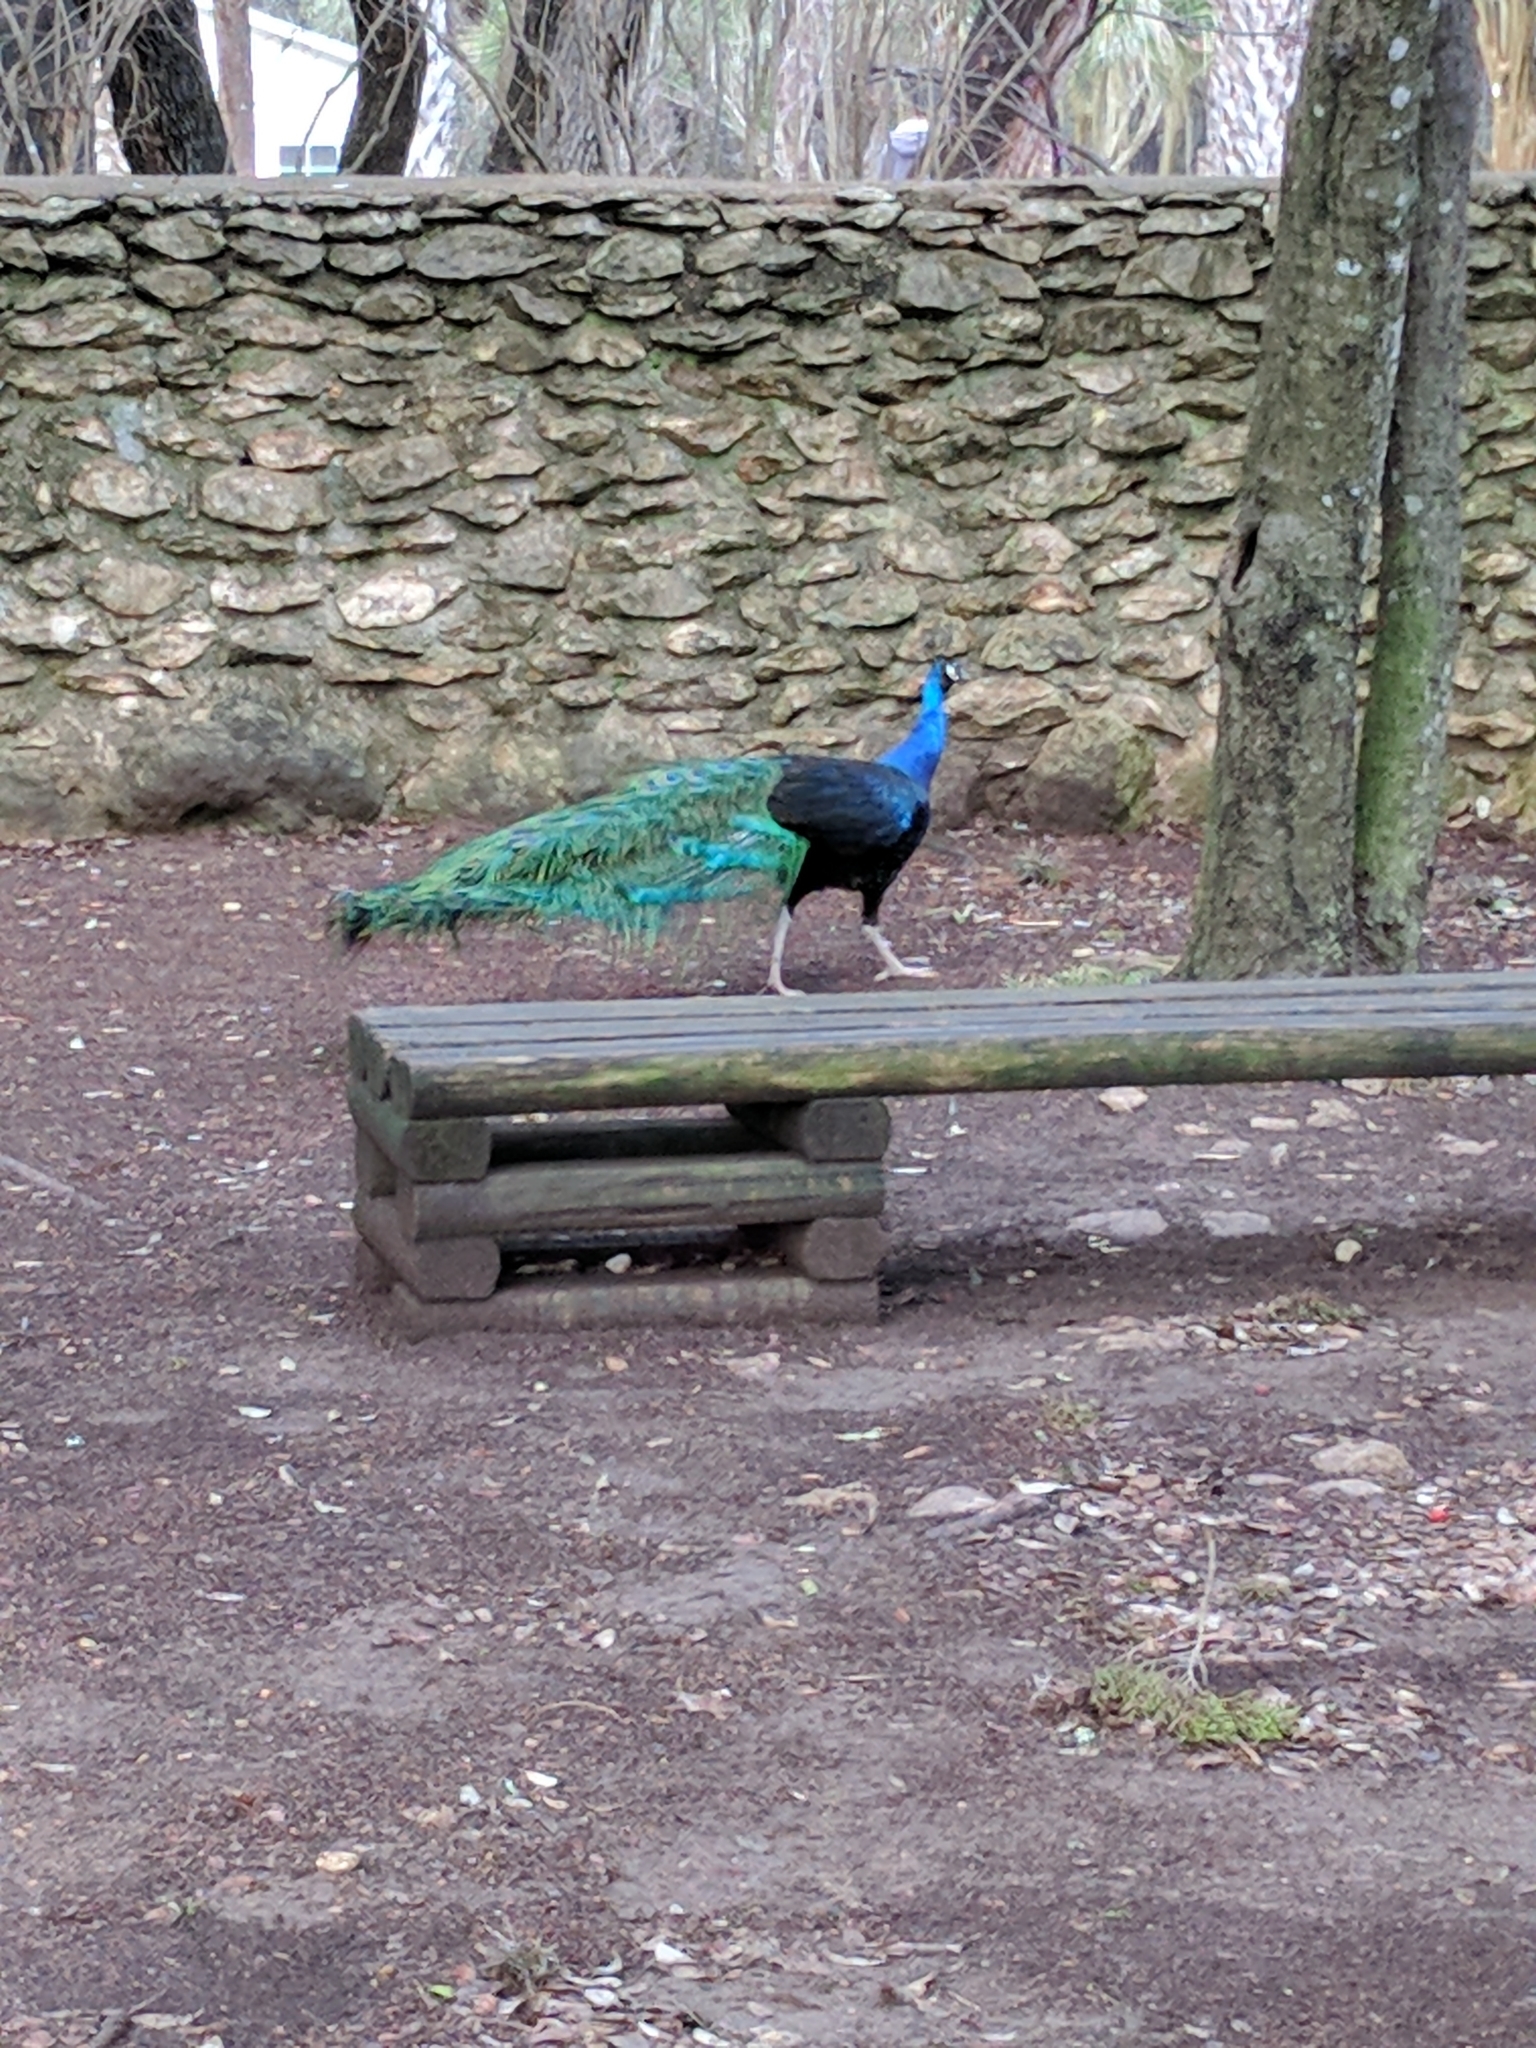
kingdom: Animalia
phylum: Chordata
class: Aves
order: Galliformes
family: Phasianidae
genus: Pavo
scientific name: Pavo cristatus
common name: Indian peafowl
